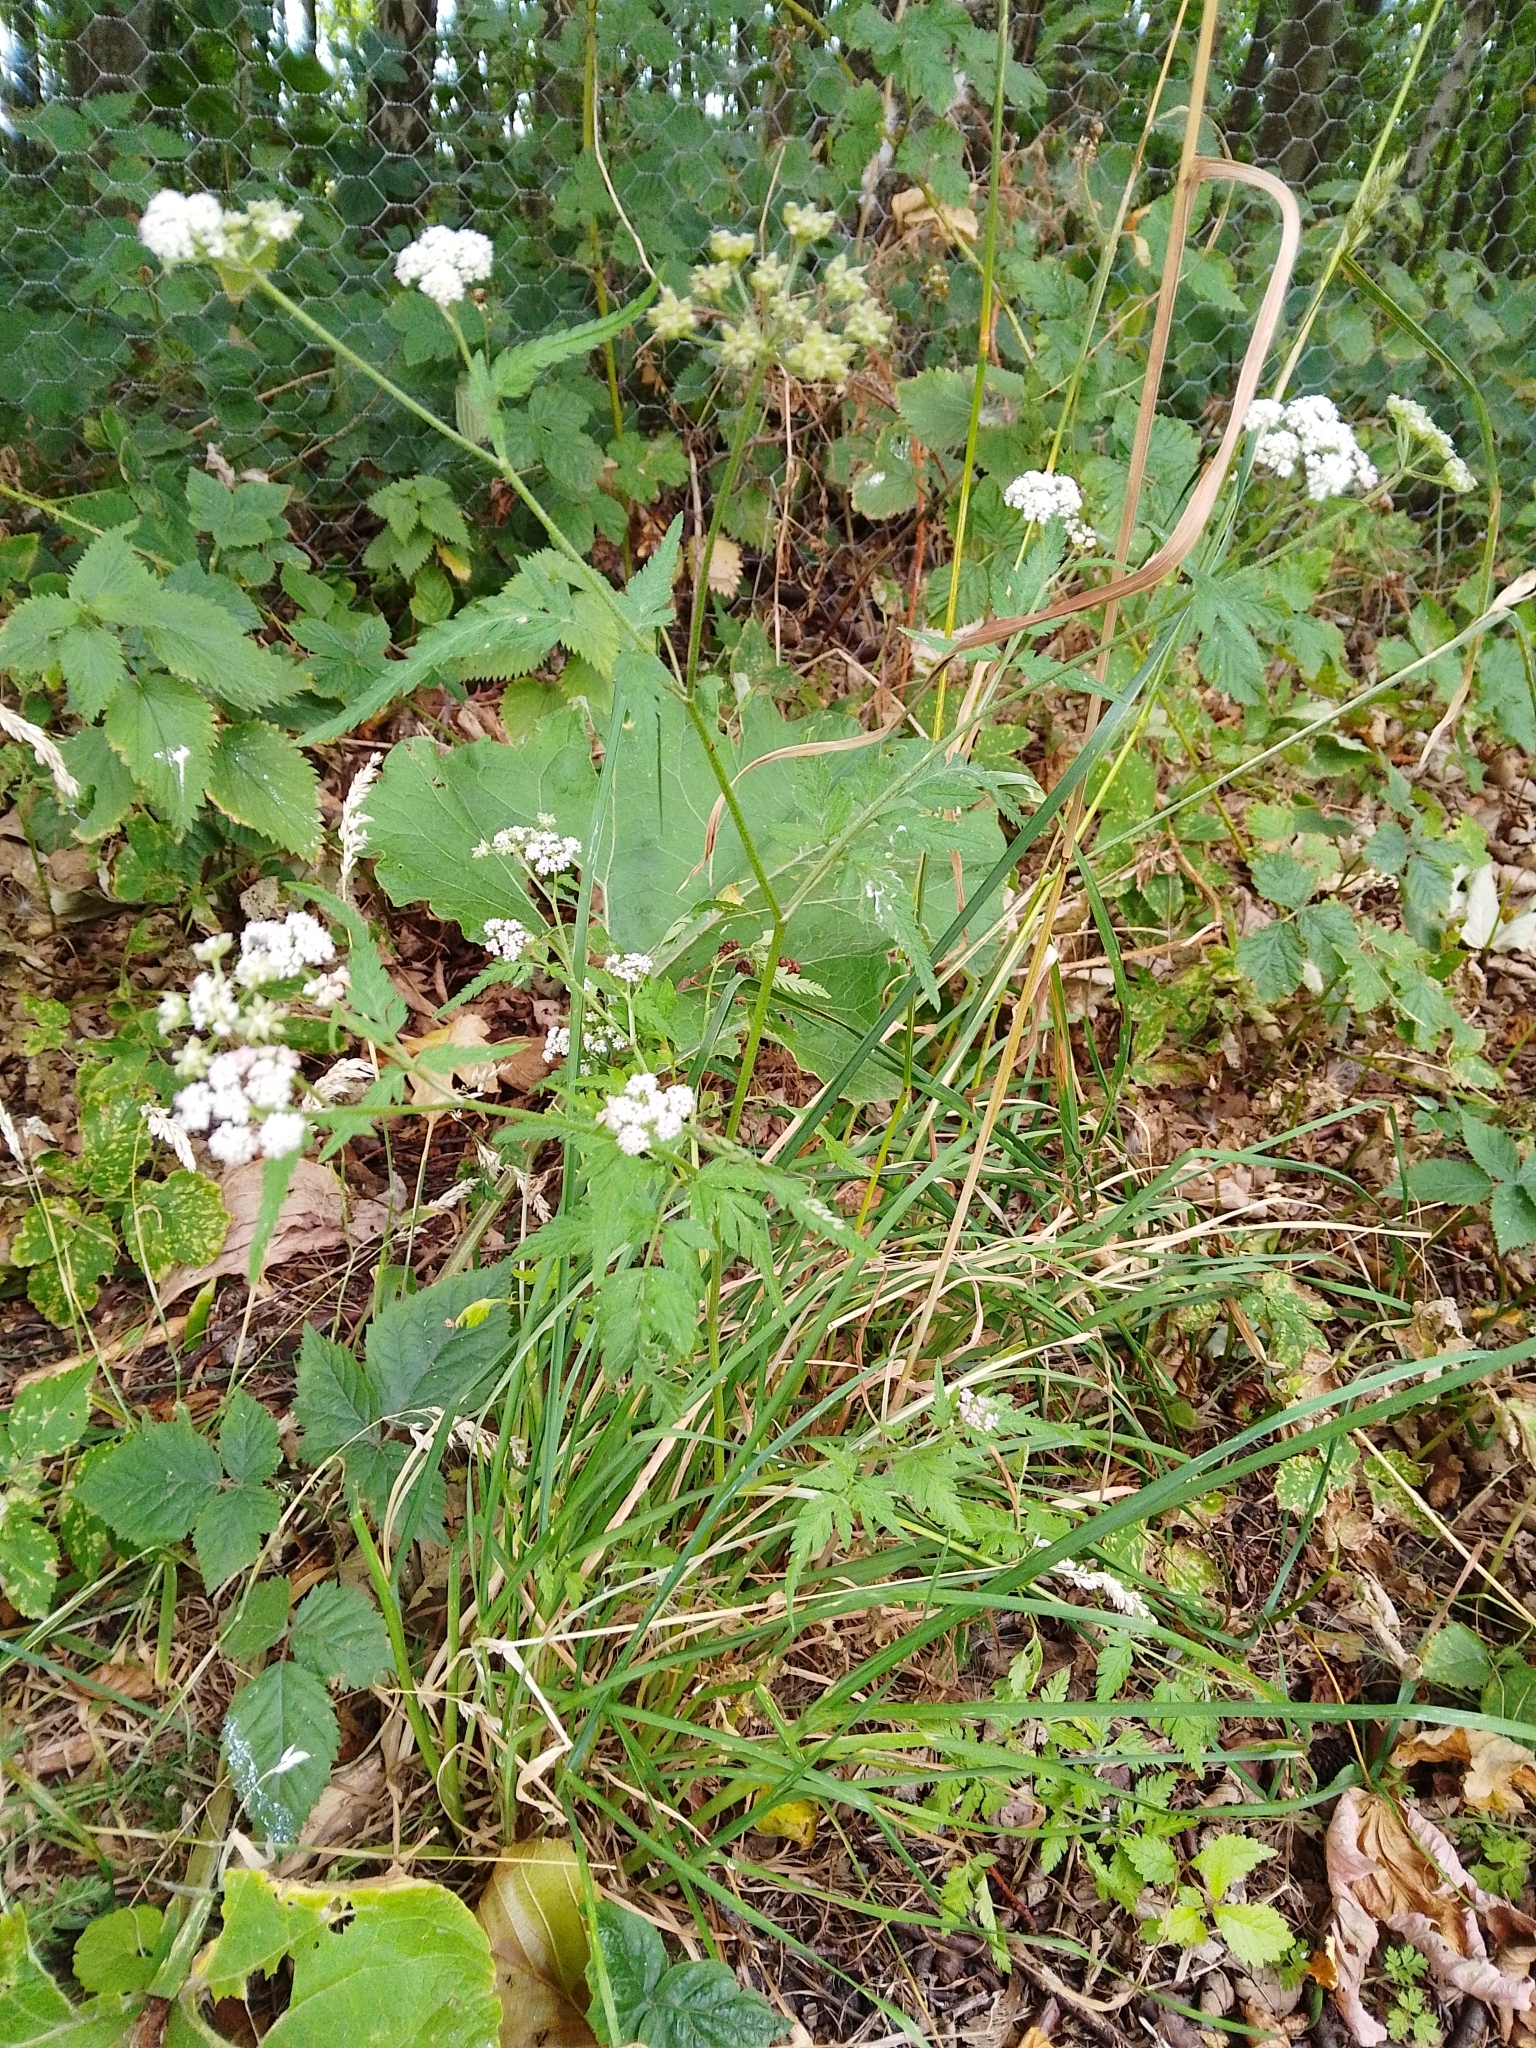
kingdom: Plantae
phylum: Tracheophyta
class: Magnoliopsida
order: Apiales
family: Apiaceae
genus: Torilis
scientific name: Torilis japonica
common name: Upright hedge-parsley
